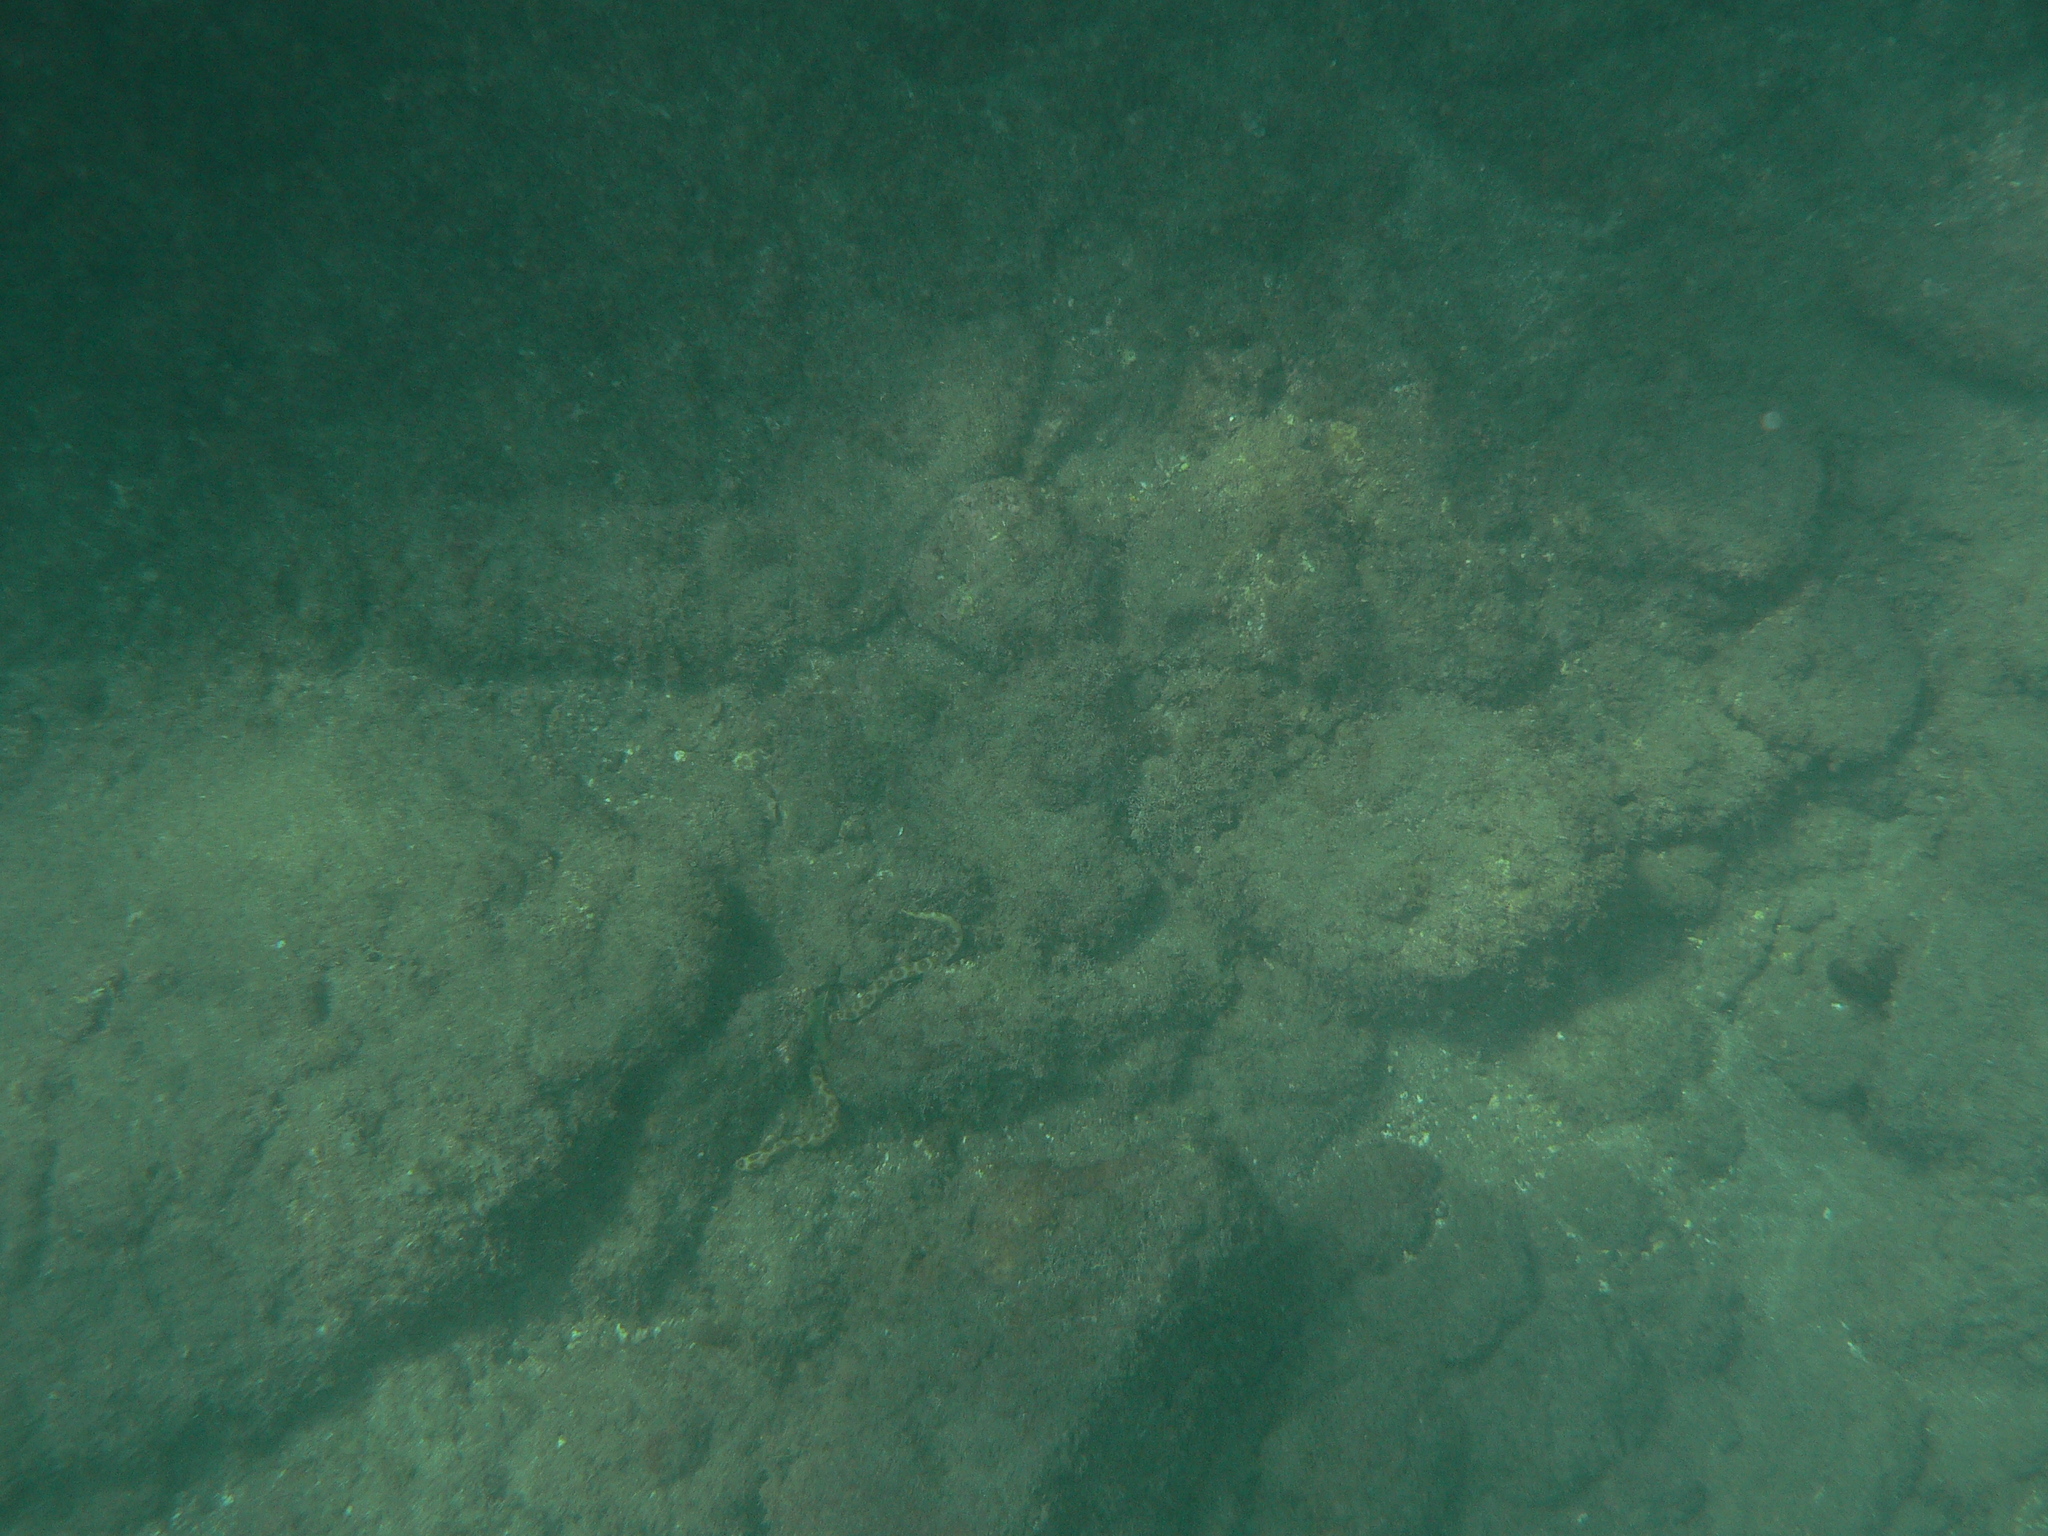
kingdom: Animalia
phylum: Chordata
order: Anguilliformes
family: Ophichthidae
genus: Myrichthys
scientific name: Myrichthys pardalis
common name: Leopard eel
